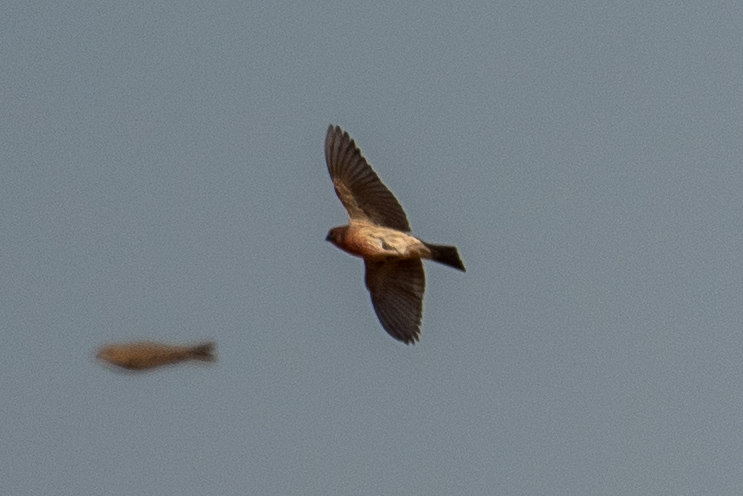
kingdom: Animalia
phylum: Chordata
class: Aves
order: Passeriformes
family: Fringillidae
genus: Haemorhous
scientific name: Haemorhous mexicanus
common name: House finch
